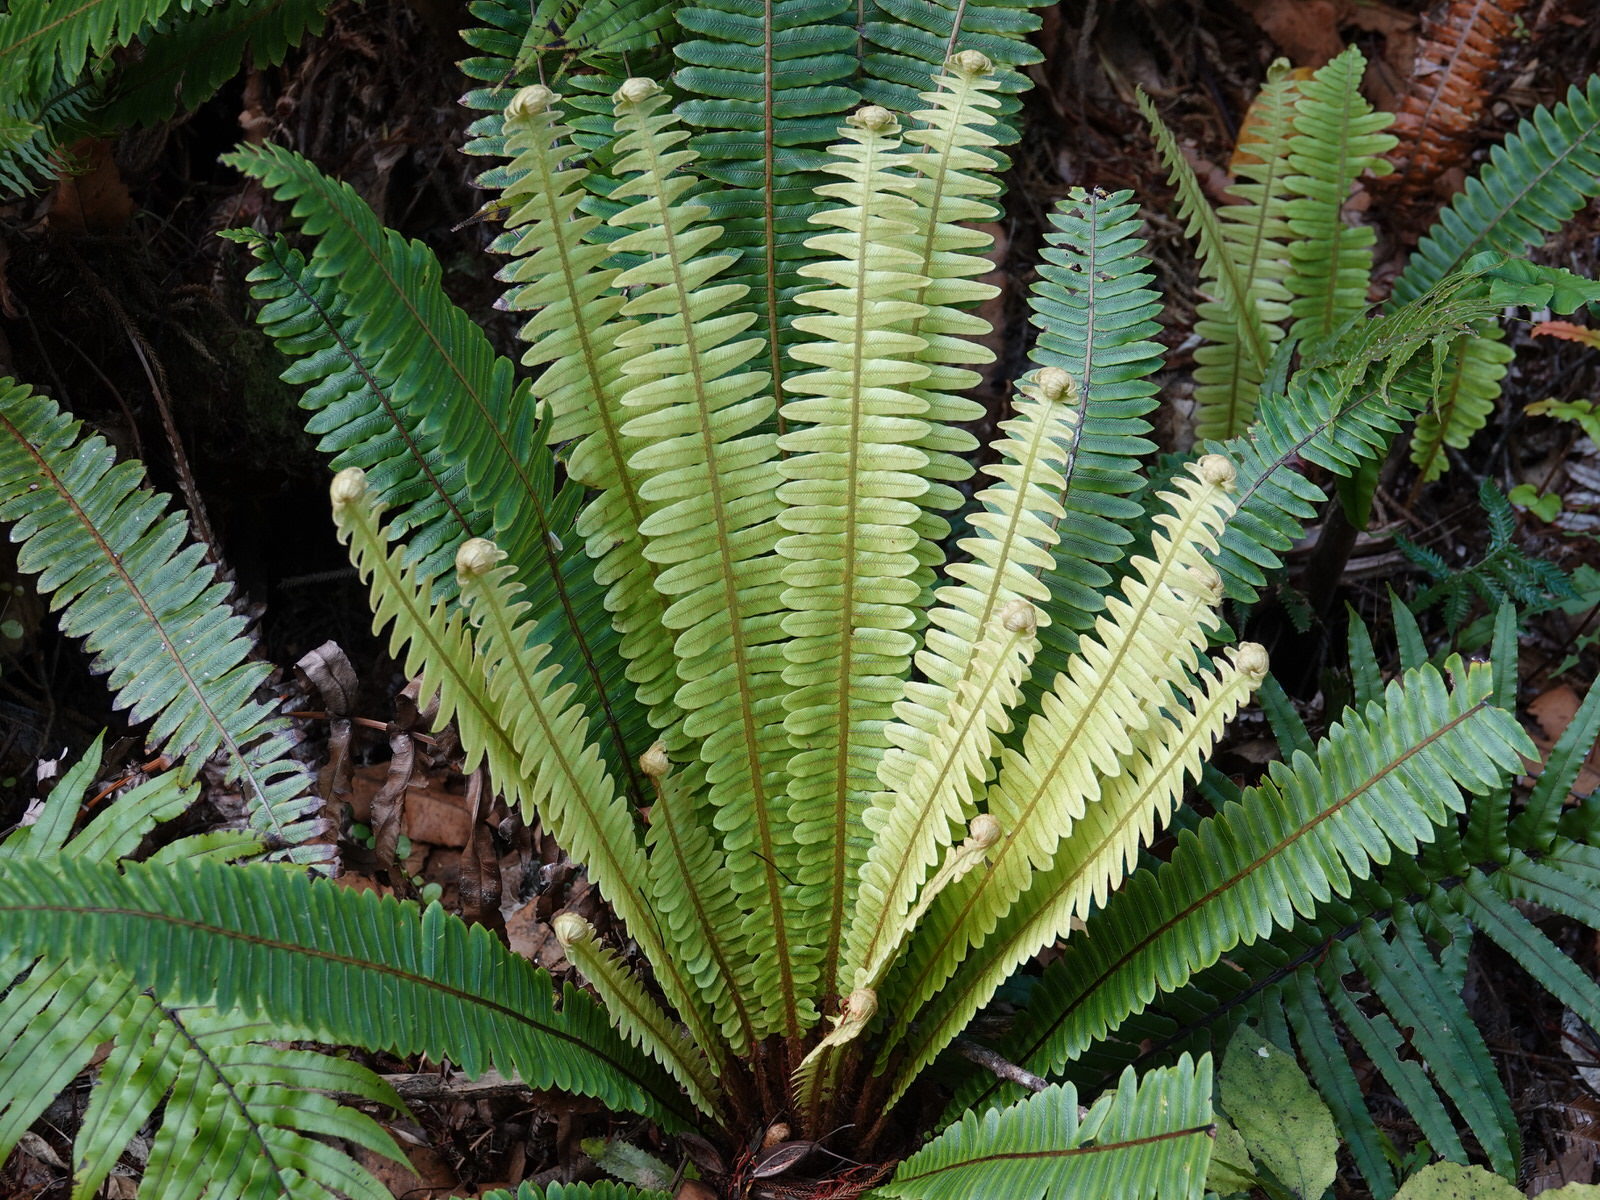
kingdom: Plantae
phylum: Tracheophyta
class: Polypodiopsida
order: Polypodiales
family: Blechnaceae
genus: Lomaria
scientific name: Lomaria discolor
